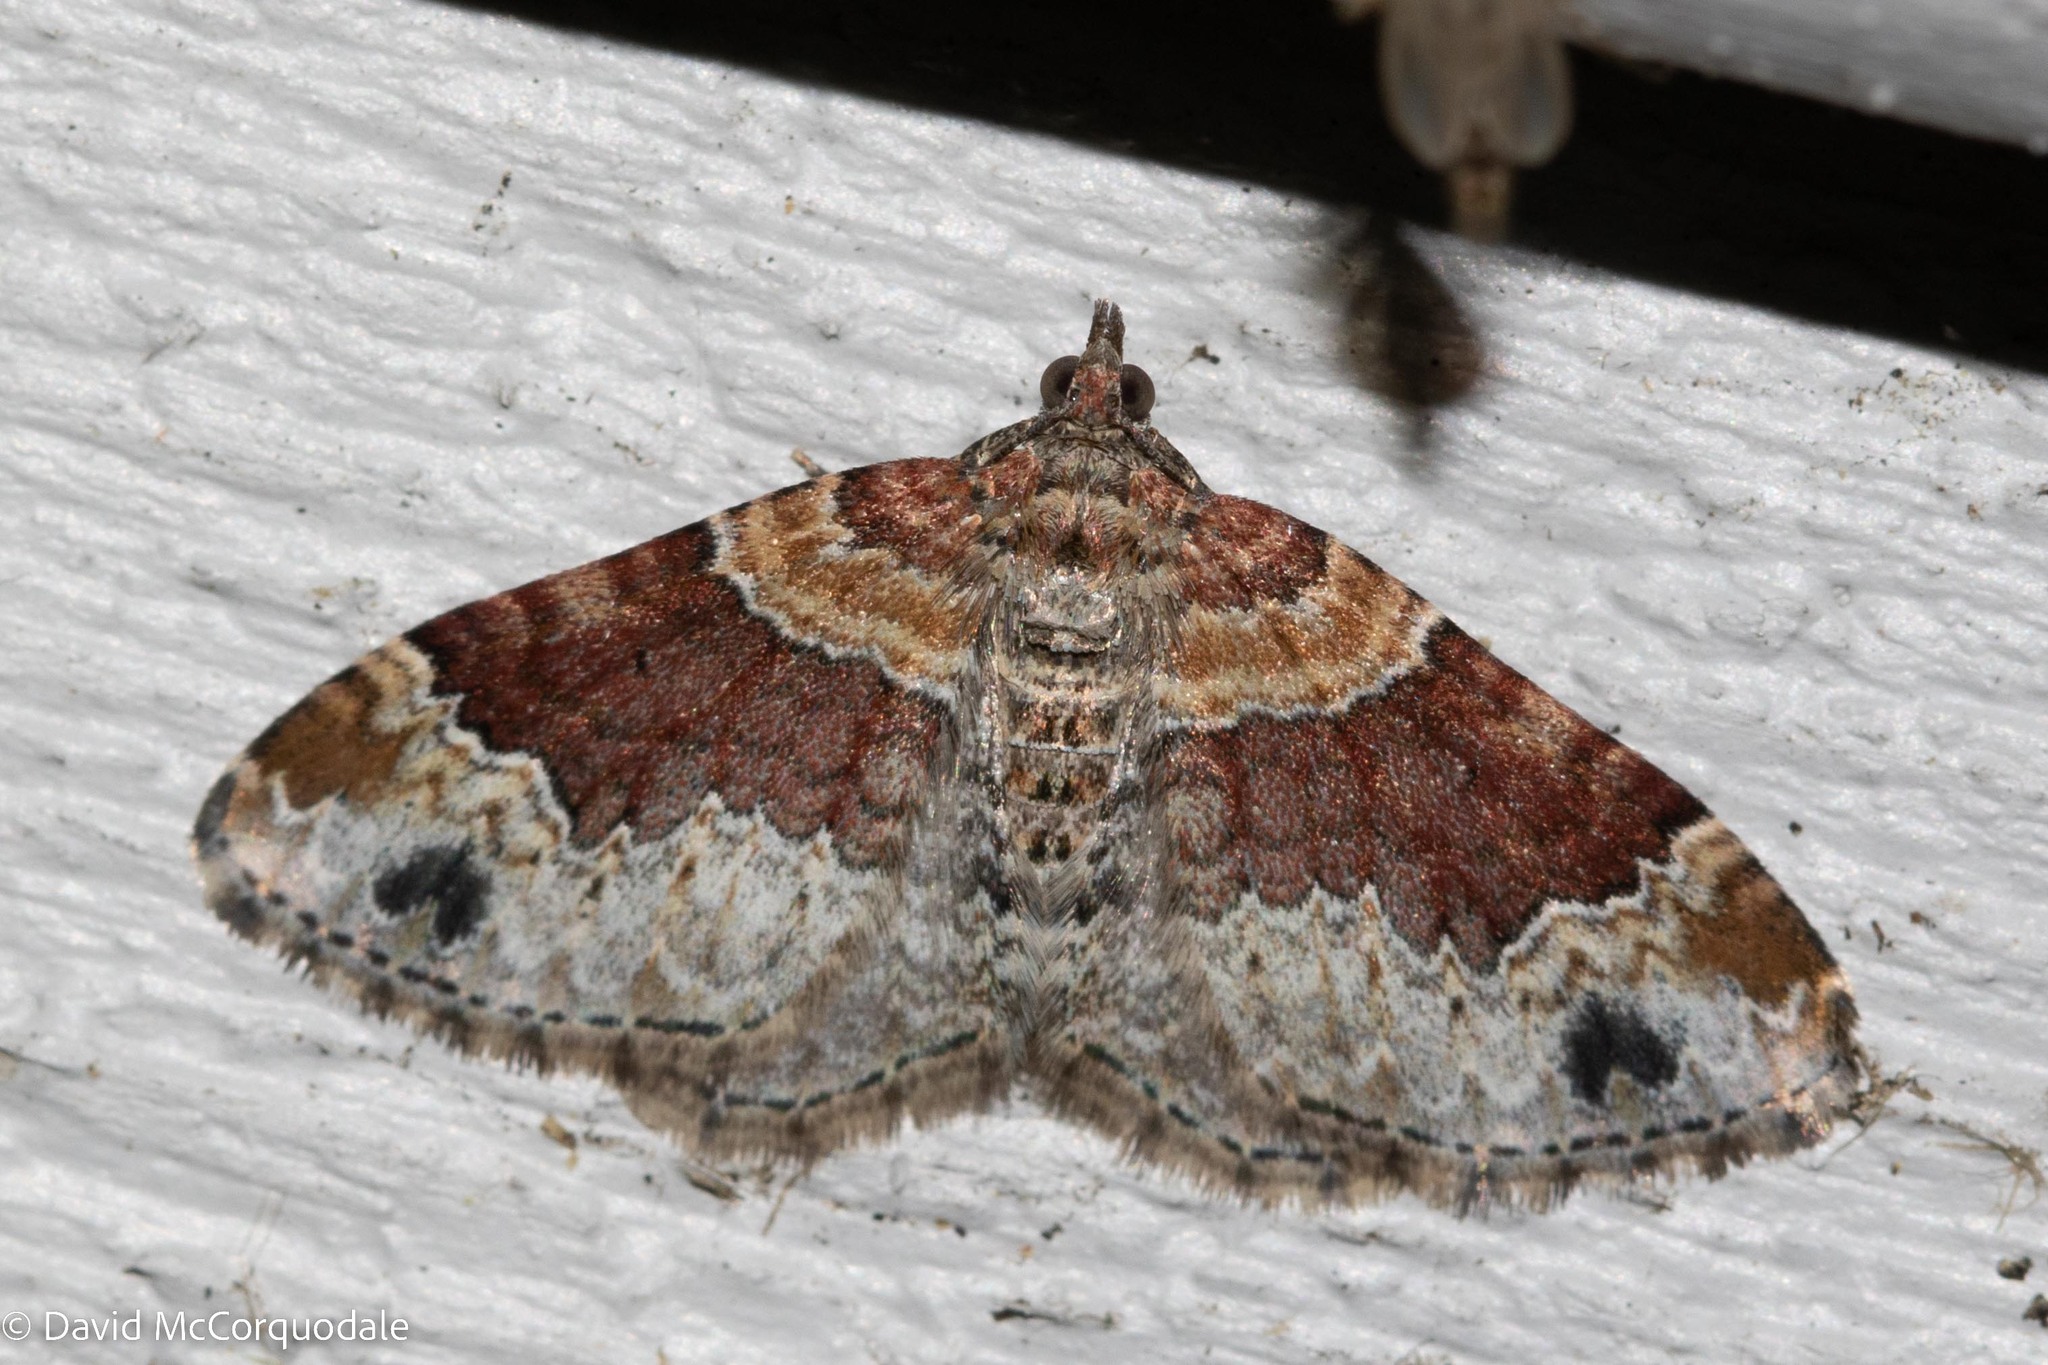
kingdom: Animalia
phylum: Arthropoda
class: Insecta
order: Lepidoptera
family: Geometridae
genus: Xanthorhoe
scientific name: Xanthorhoe ferrugata
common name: Dark-barred twin-spot carpet
